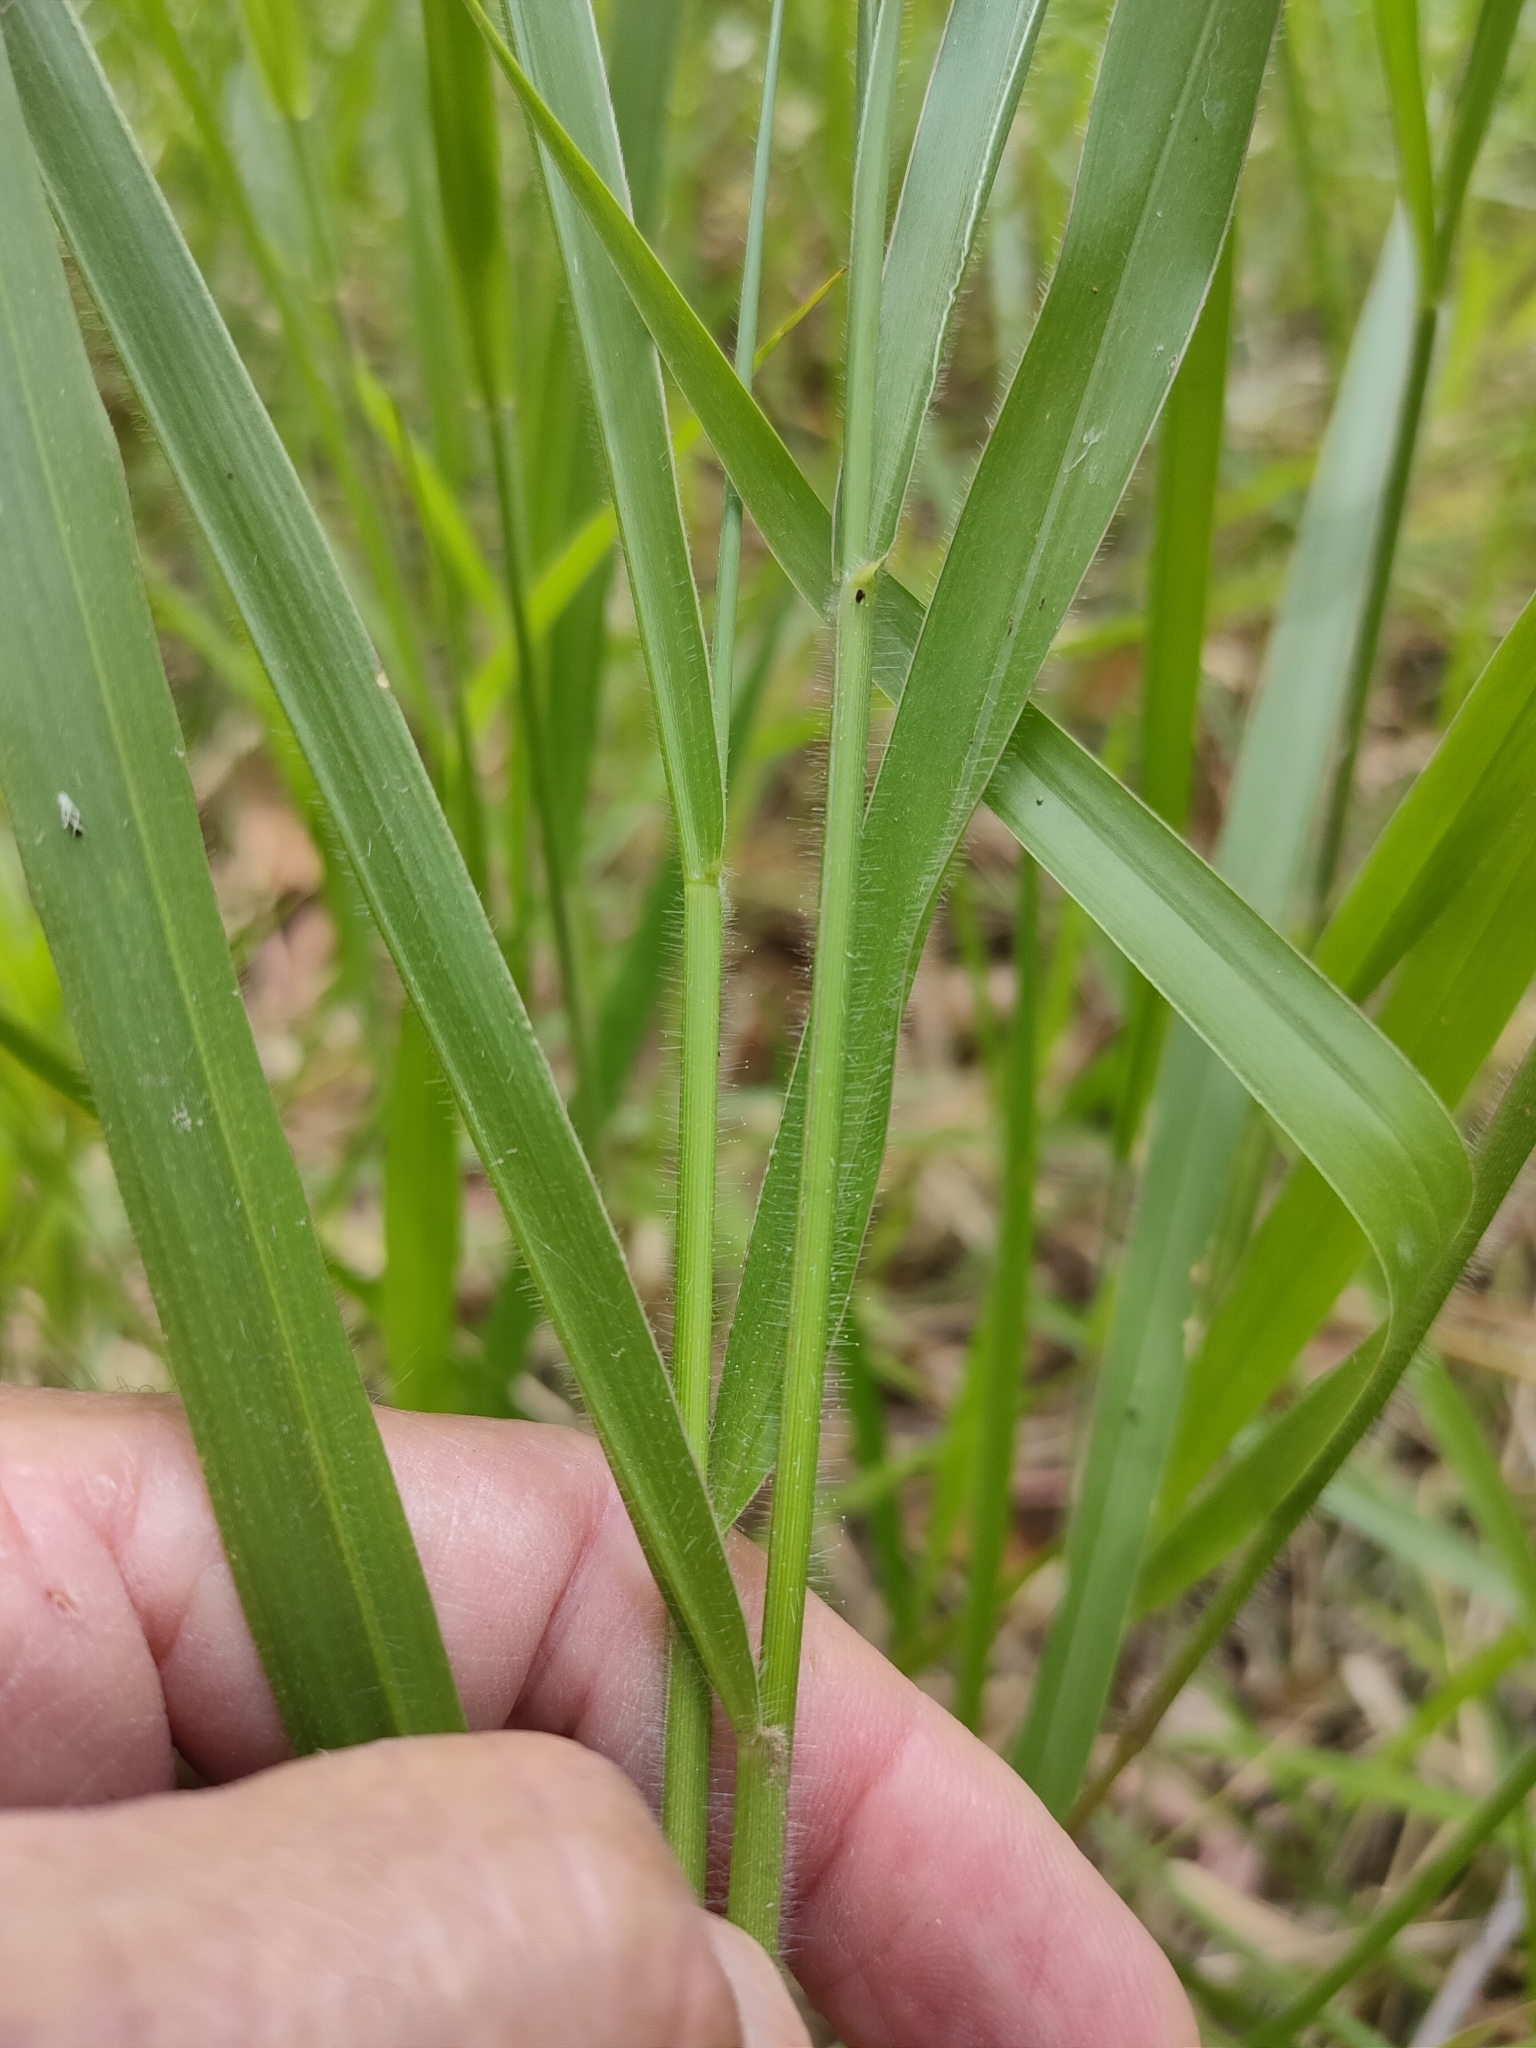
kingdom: Plantae
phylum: Tracheophyta
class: Liliopsida
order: Poales
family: Poaceae
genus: Urochloa
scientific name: Urochloa eminii
